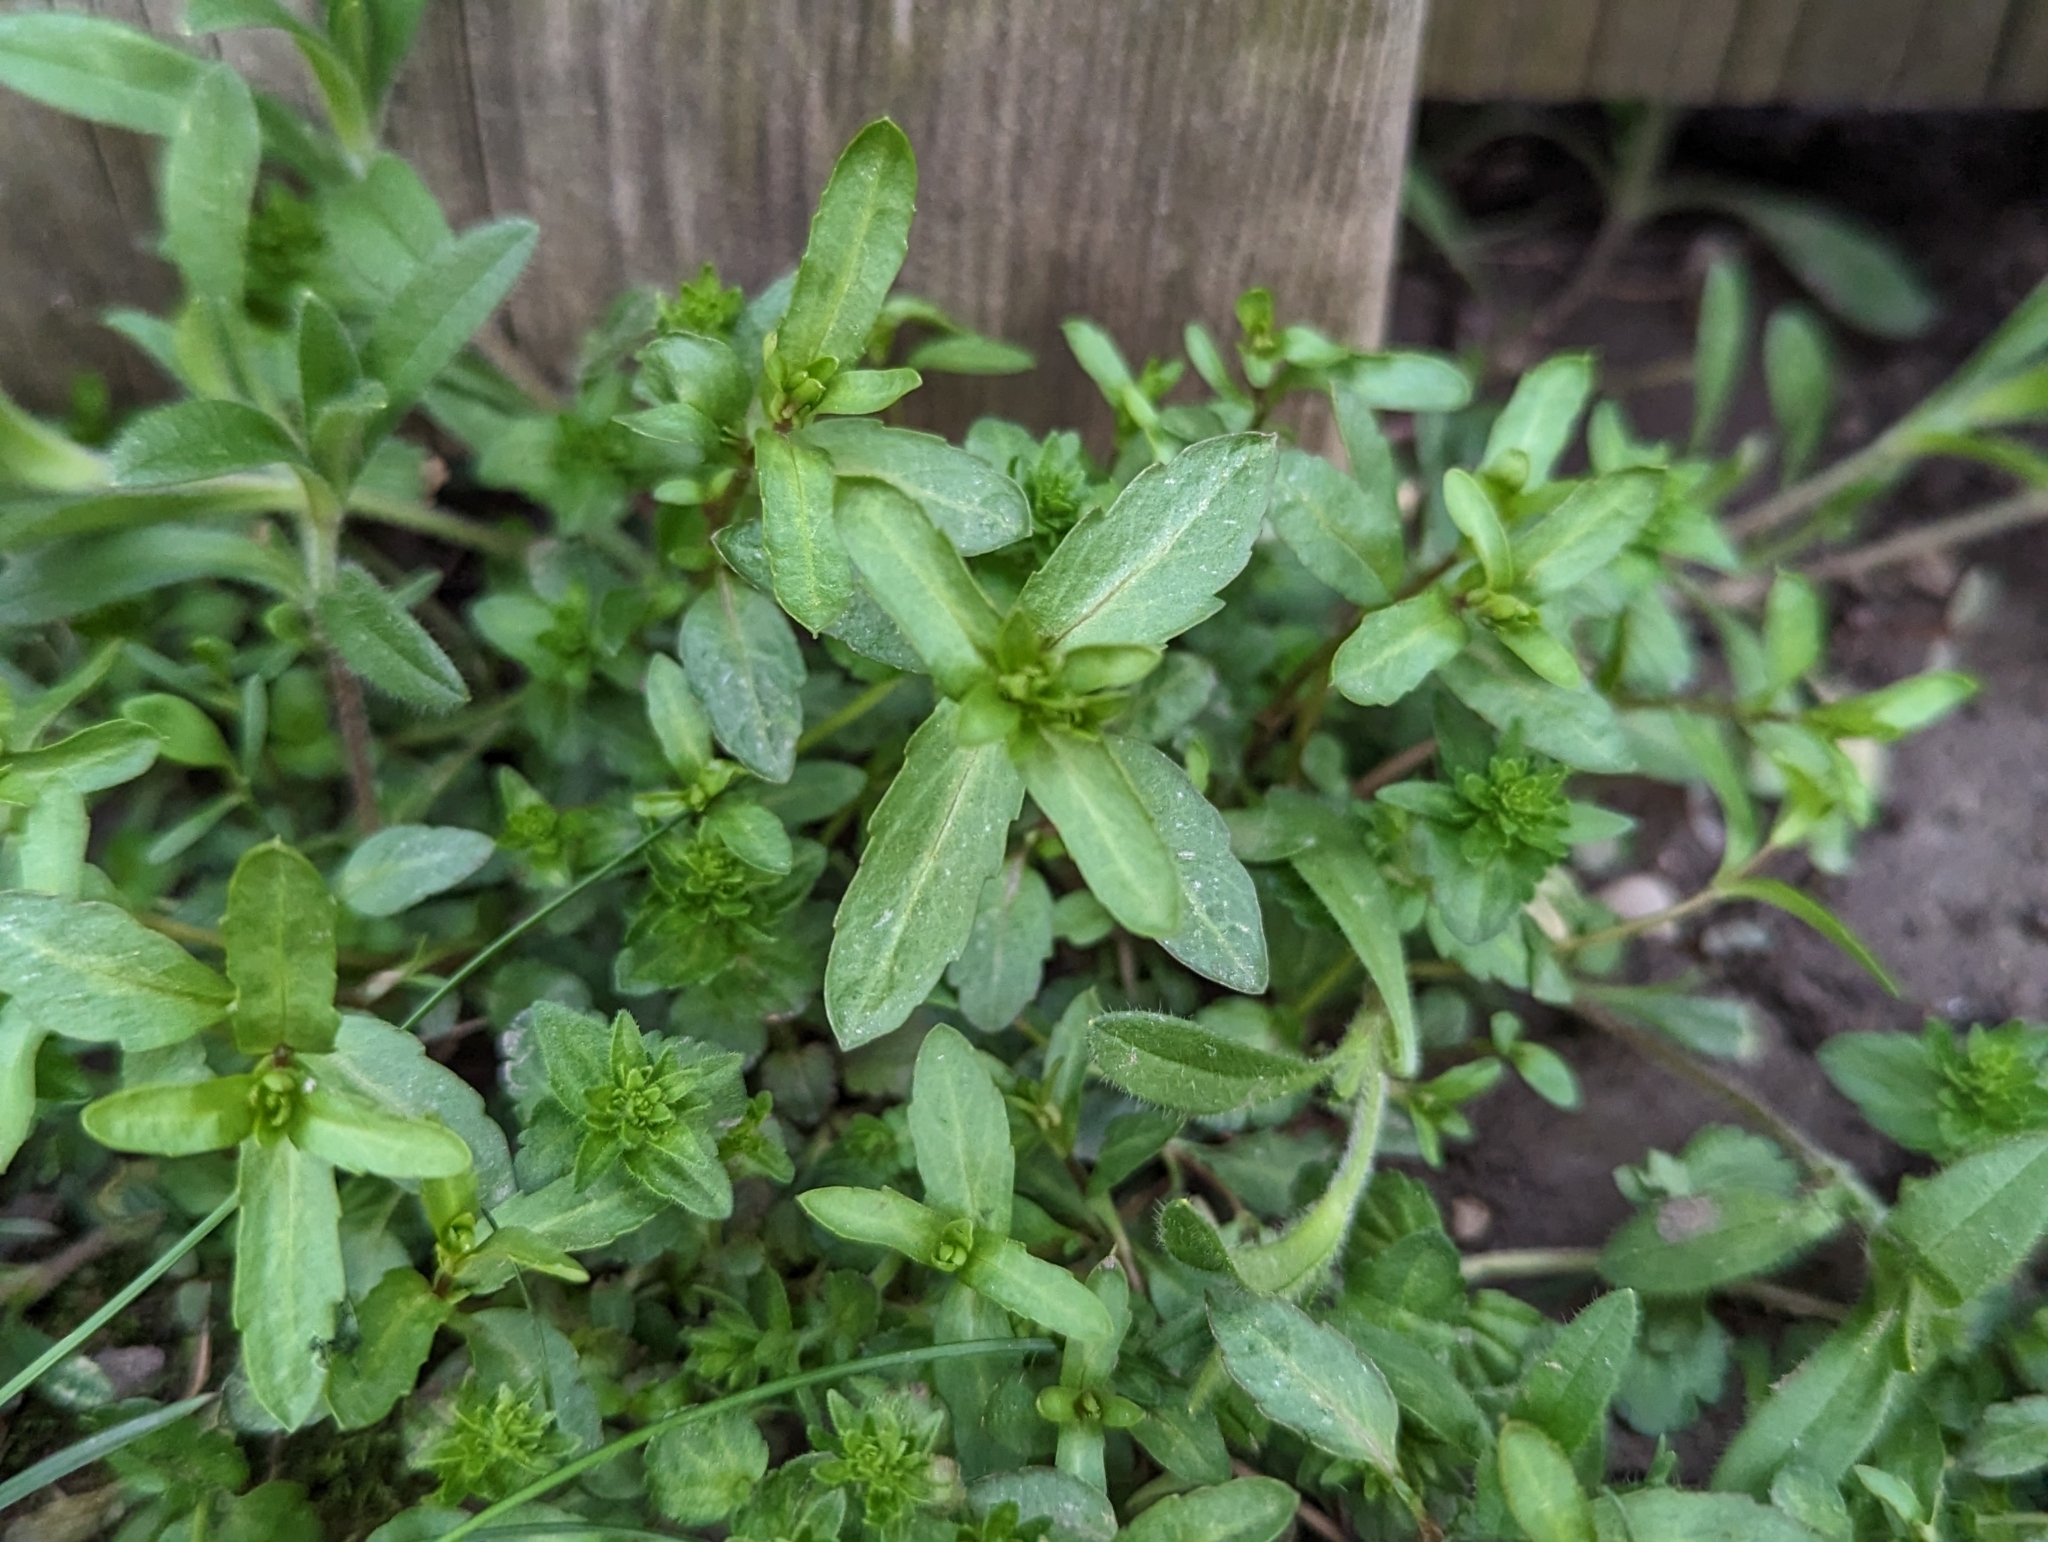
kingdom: Plantae
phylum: Tracheophyta
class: Magnoliopsida
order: Lamiales
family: Plantaginaceae
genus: Veronica
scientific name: Veronica peregrina
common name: Neckweed
